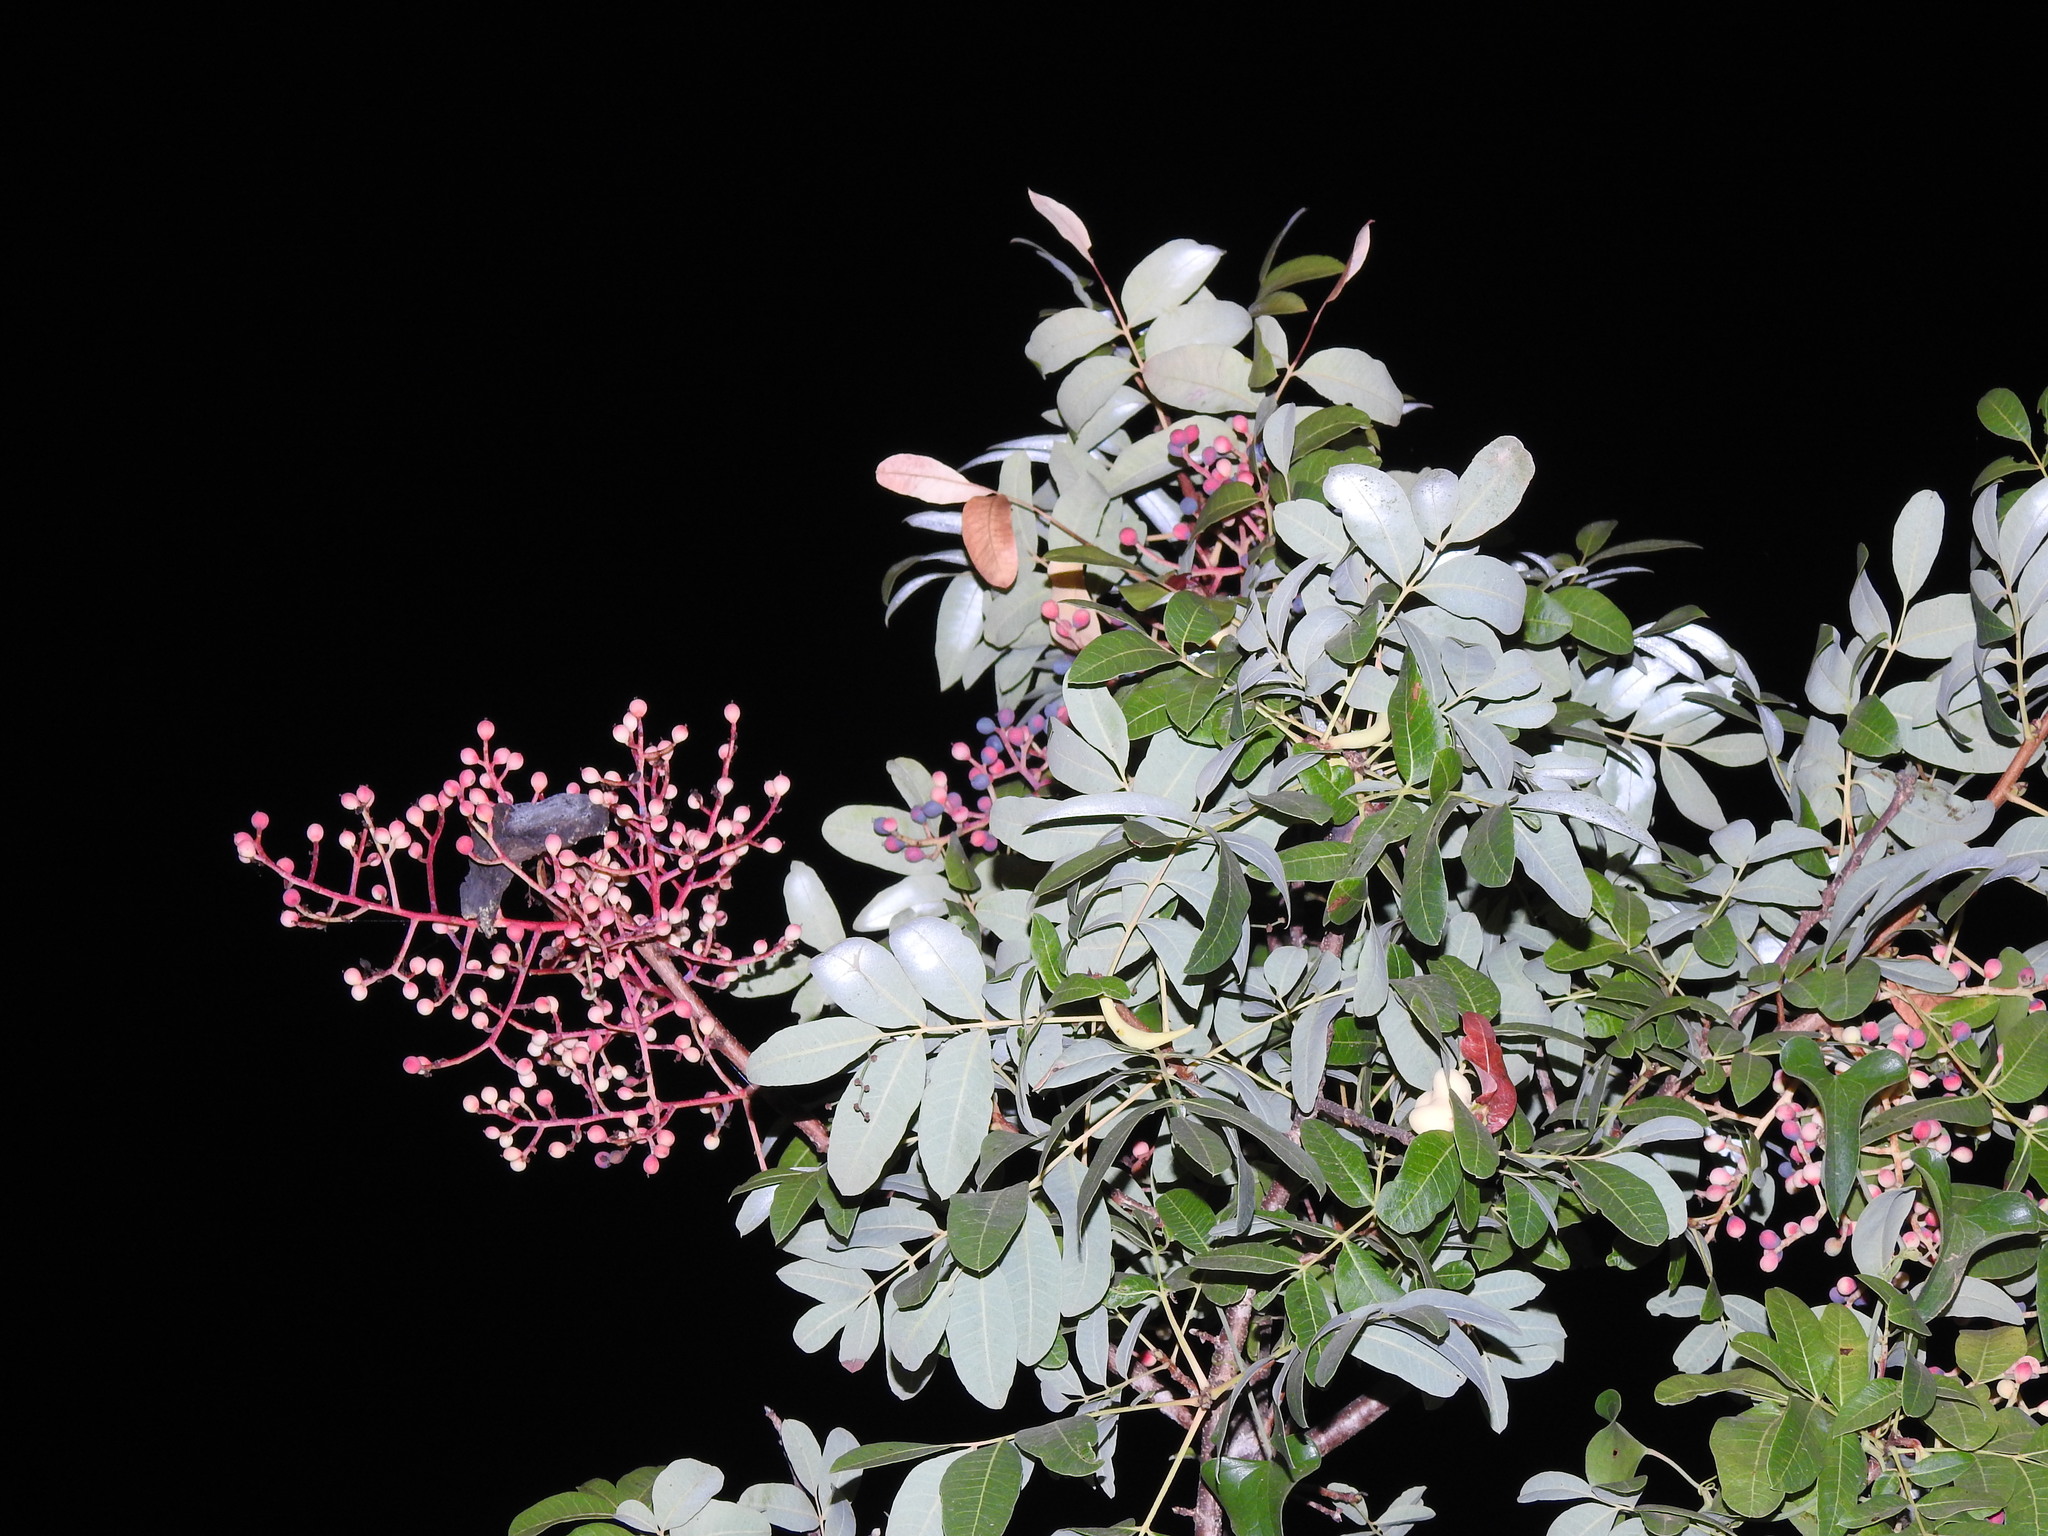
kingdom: Plantae
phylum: Tracheophyta
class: Magnoliopsida
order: Sapindales
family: Anacardiaceae
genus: Pistacia
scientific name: Pistacia terebinthus
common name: Terebinth
